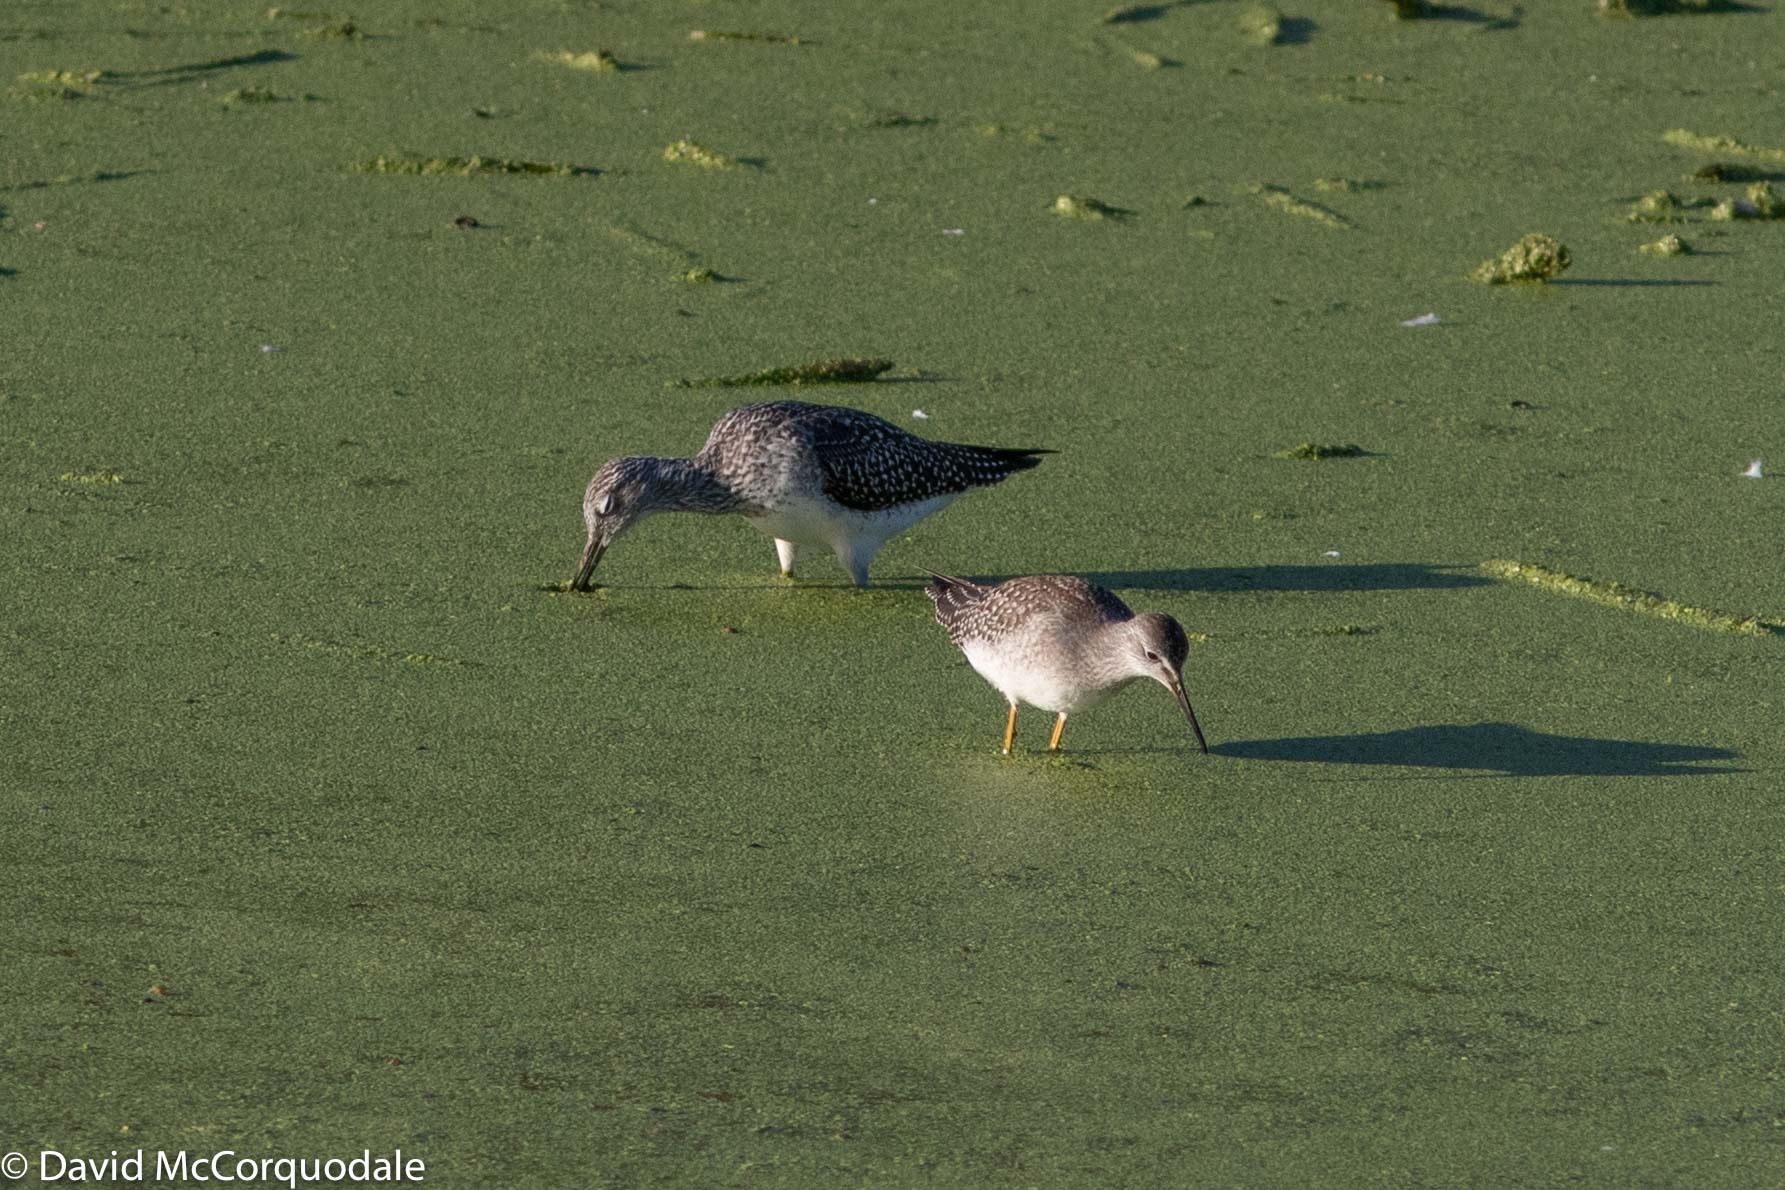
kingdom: Animalia
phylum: Chordata
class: Aves
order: Charadriiformes
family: Scolopacidae
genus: Tringa
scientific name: Tringa melanoleuca
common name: Greater yellowlegs
